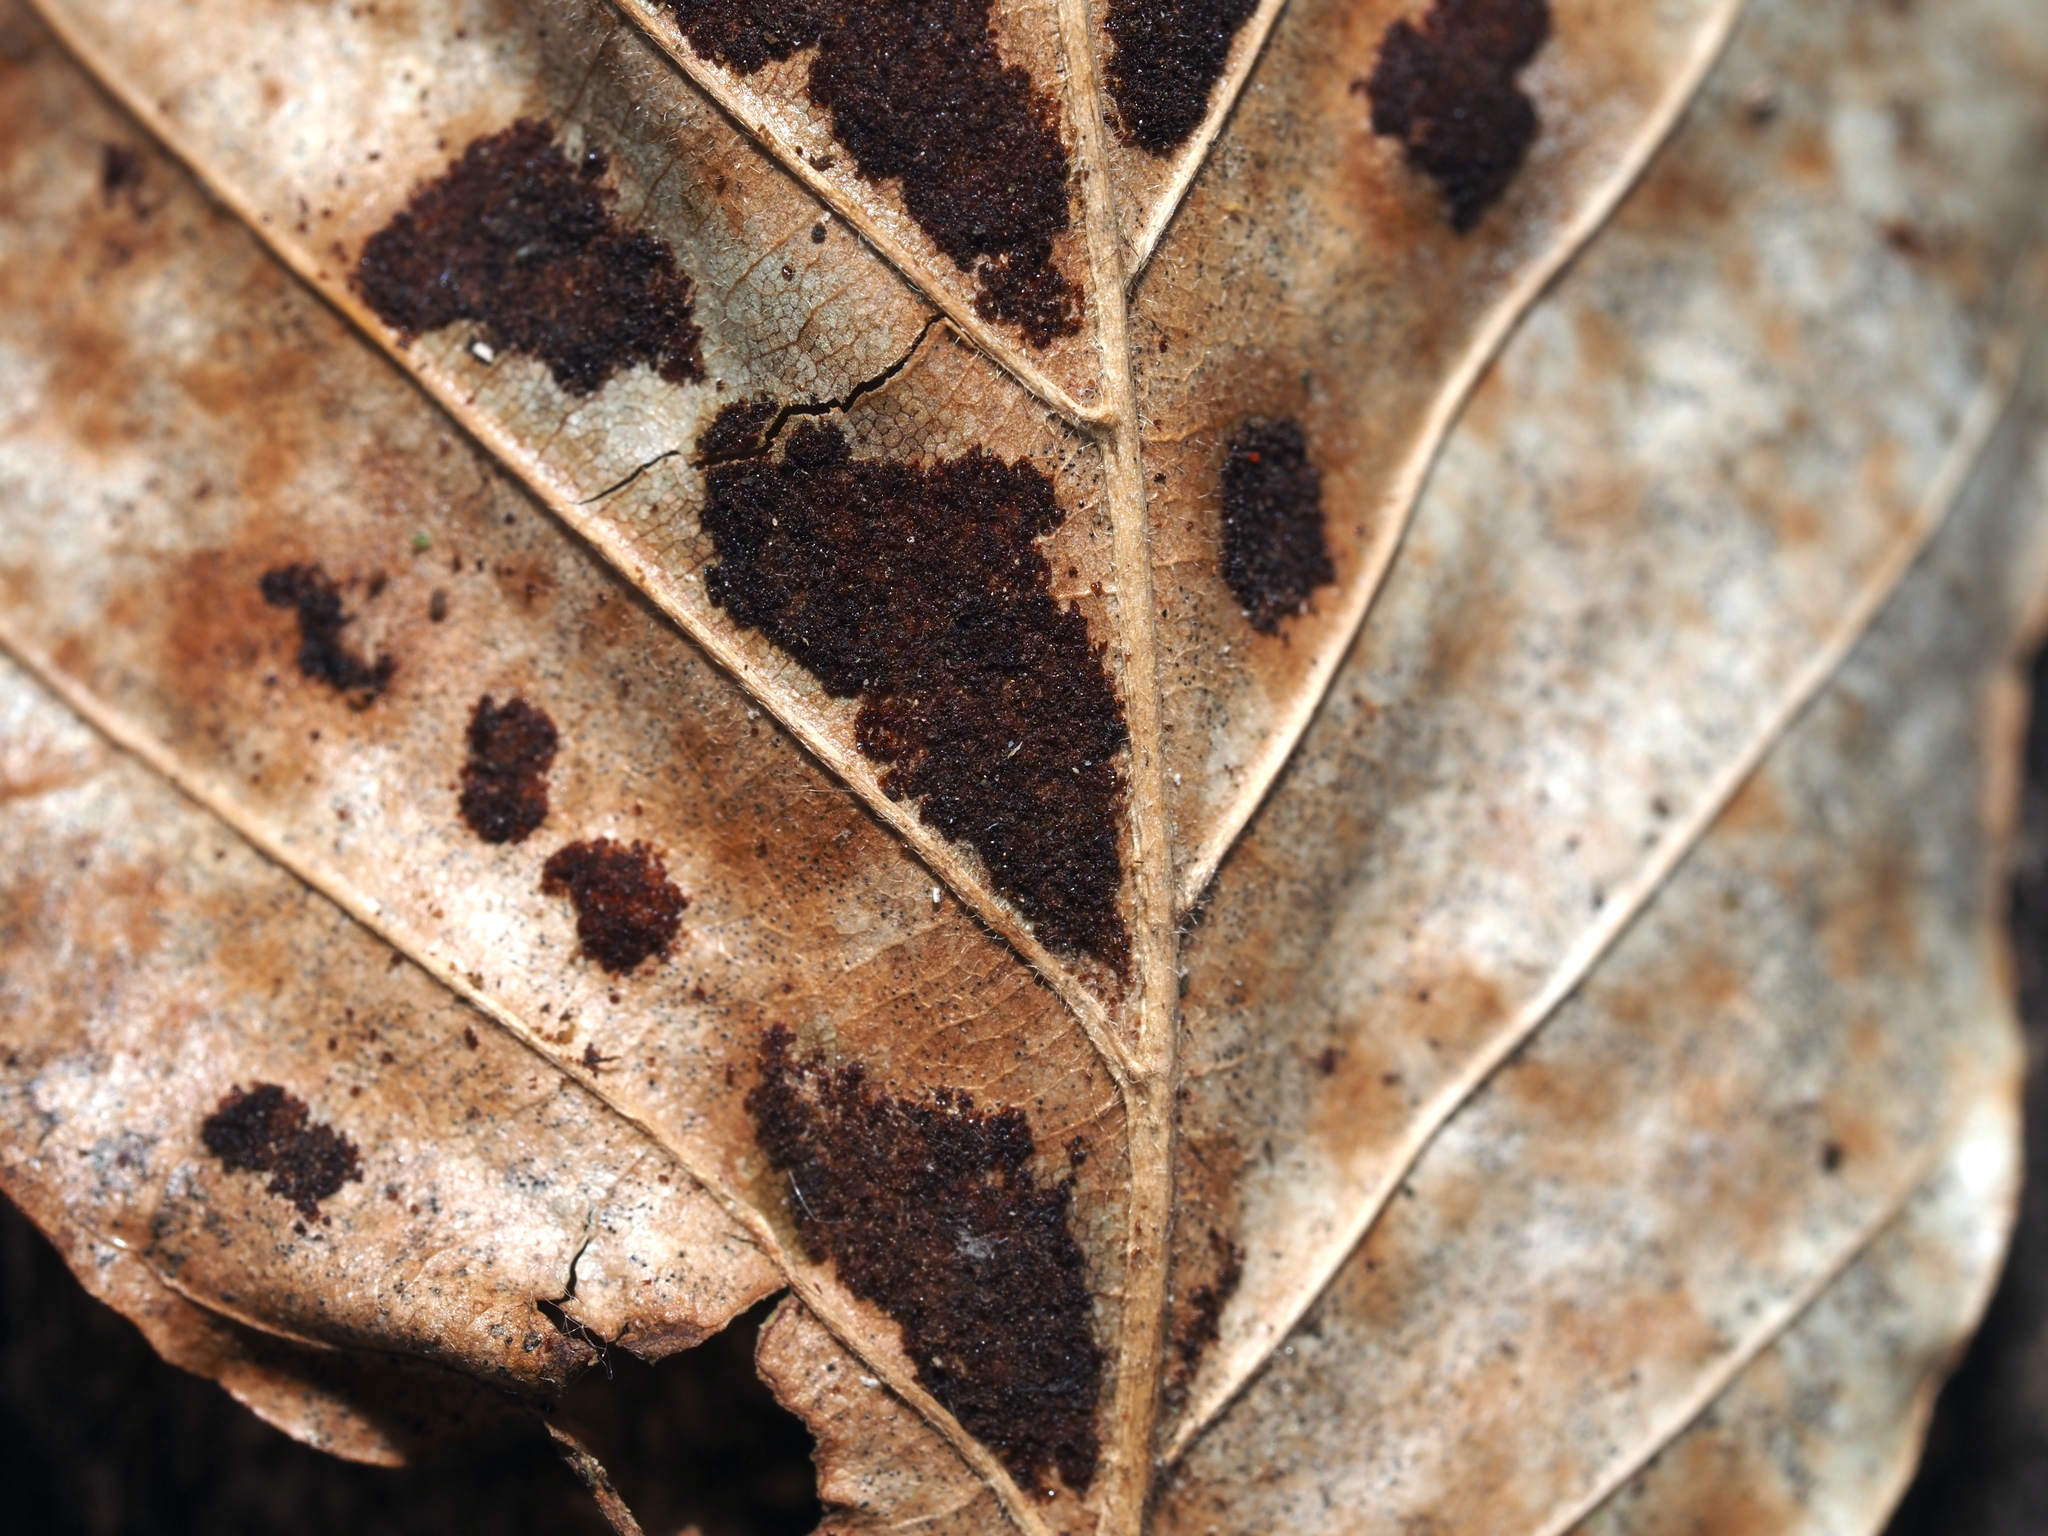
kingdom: Animalia
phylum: Arthropoda
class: Arachnida
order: Trombidiformes
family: Eriophyidae
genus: Acalitus
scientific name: Acalitus
